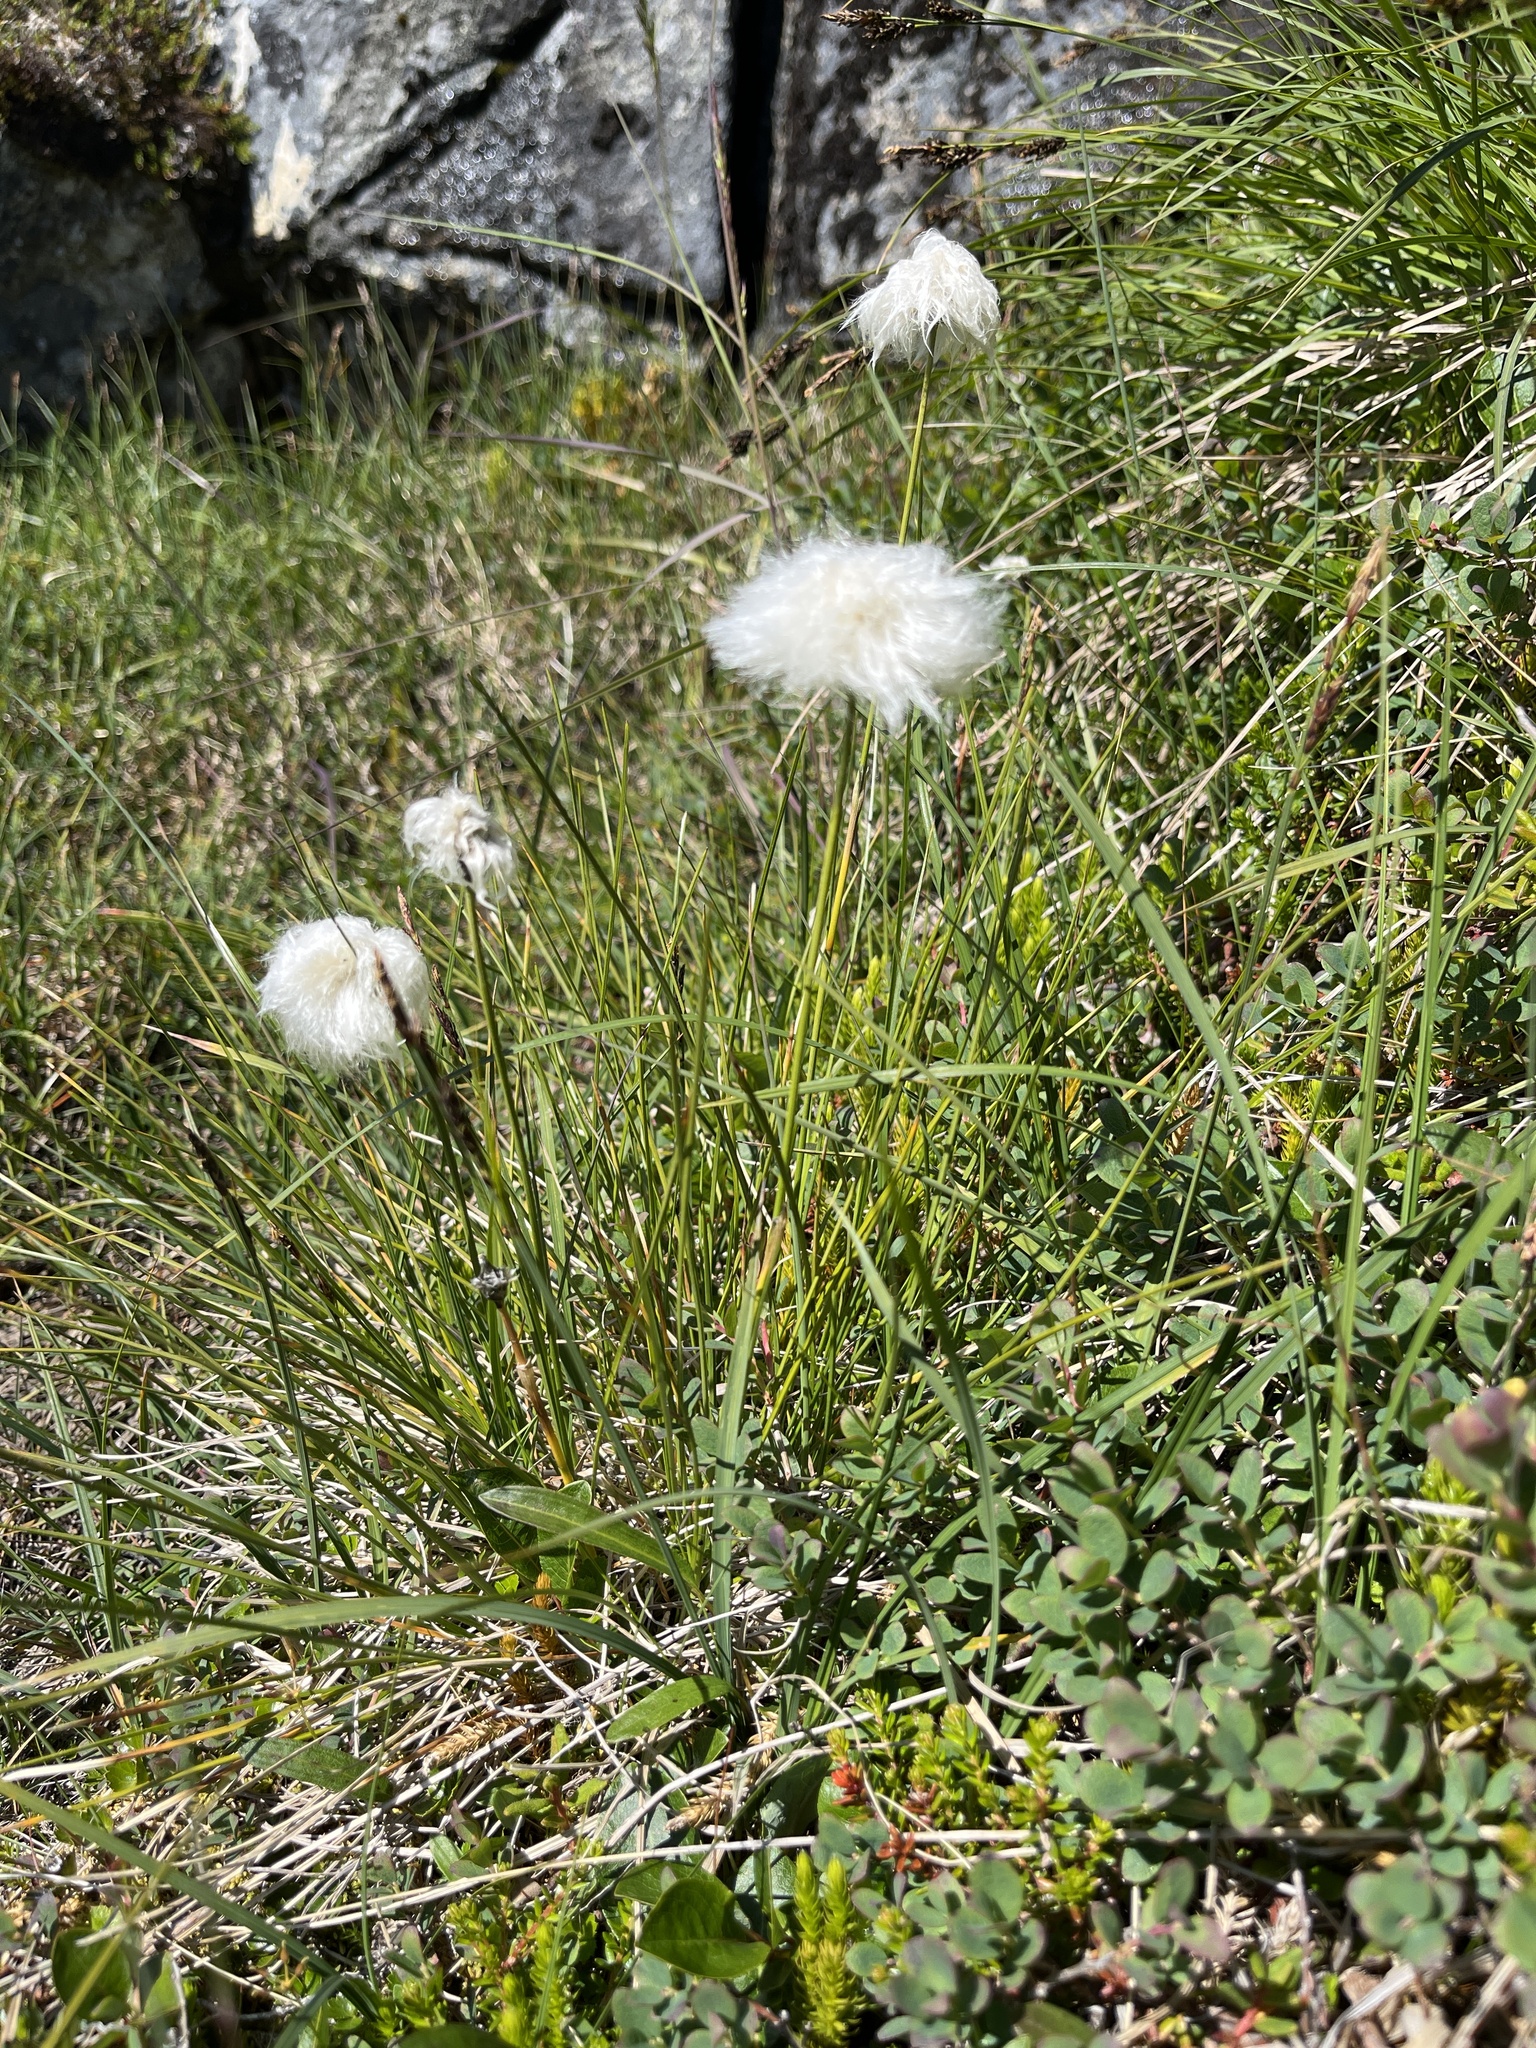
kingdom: Plantae
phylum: Tracheophyta
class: Liliopsida
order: Poales
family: Cyperaceae
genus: Eriophorum
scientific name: Eriophorum vaginatum
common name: Hare's-tail cottongrass
